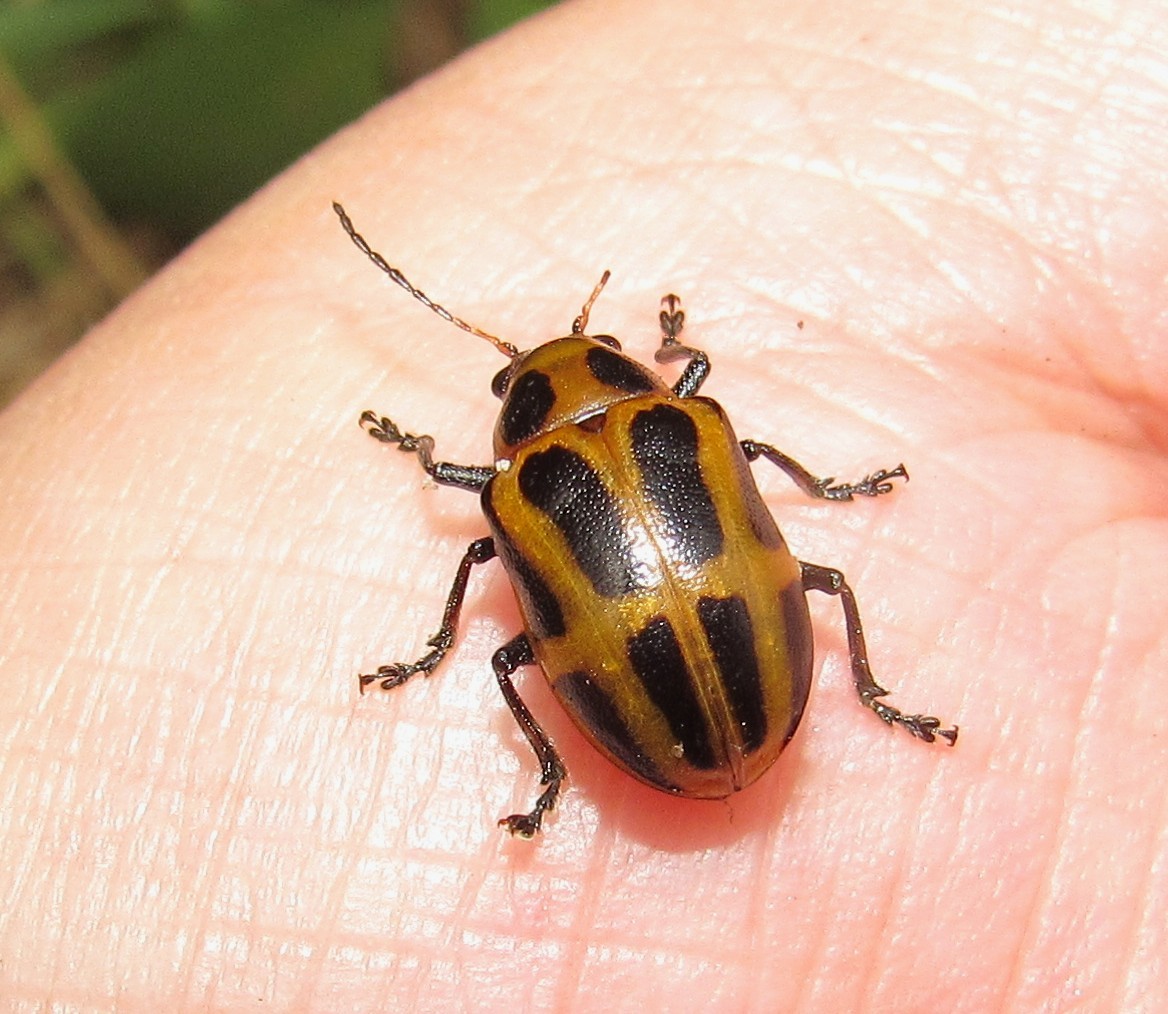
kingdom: Animalia
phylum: Arthropoda
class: Insecta
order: Coleoptera
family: Chrysomelidae
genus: Endocephalus
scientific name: Endocephalus
